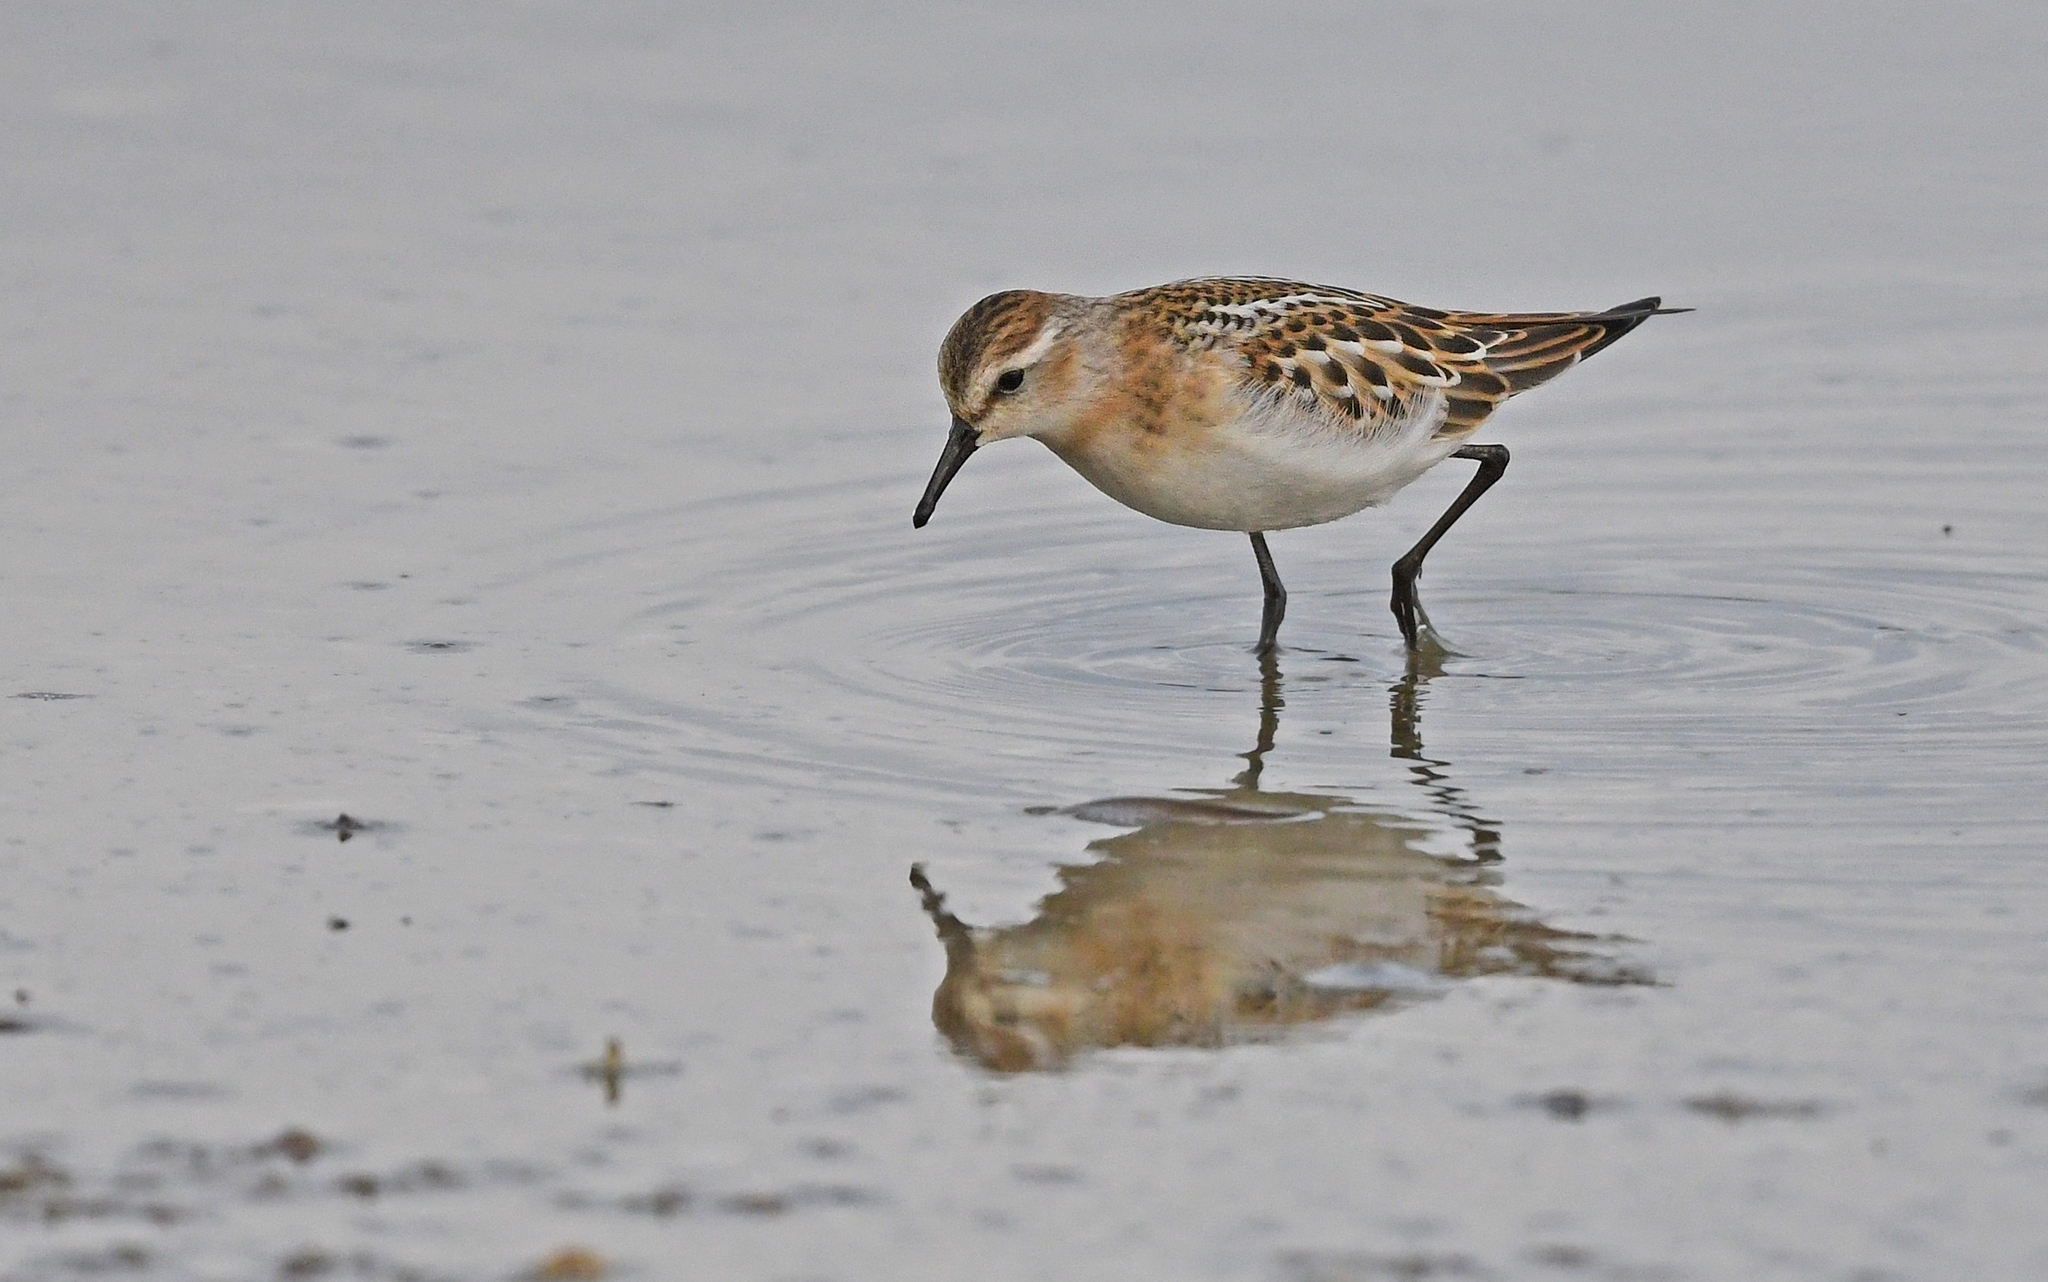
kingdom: Animalia
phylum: Chordata
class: Aves
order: Charadriiformes
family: Scolopacidae
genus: Calidris
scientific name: Calidris minuta
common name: Little stint
